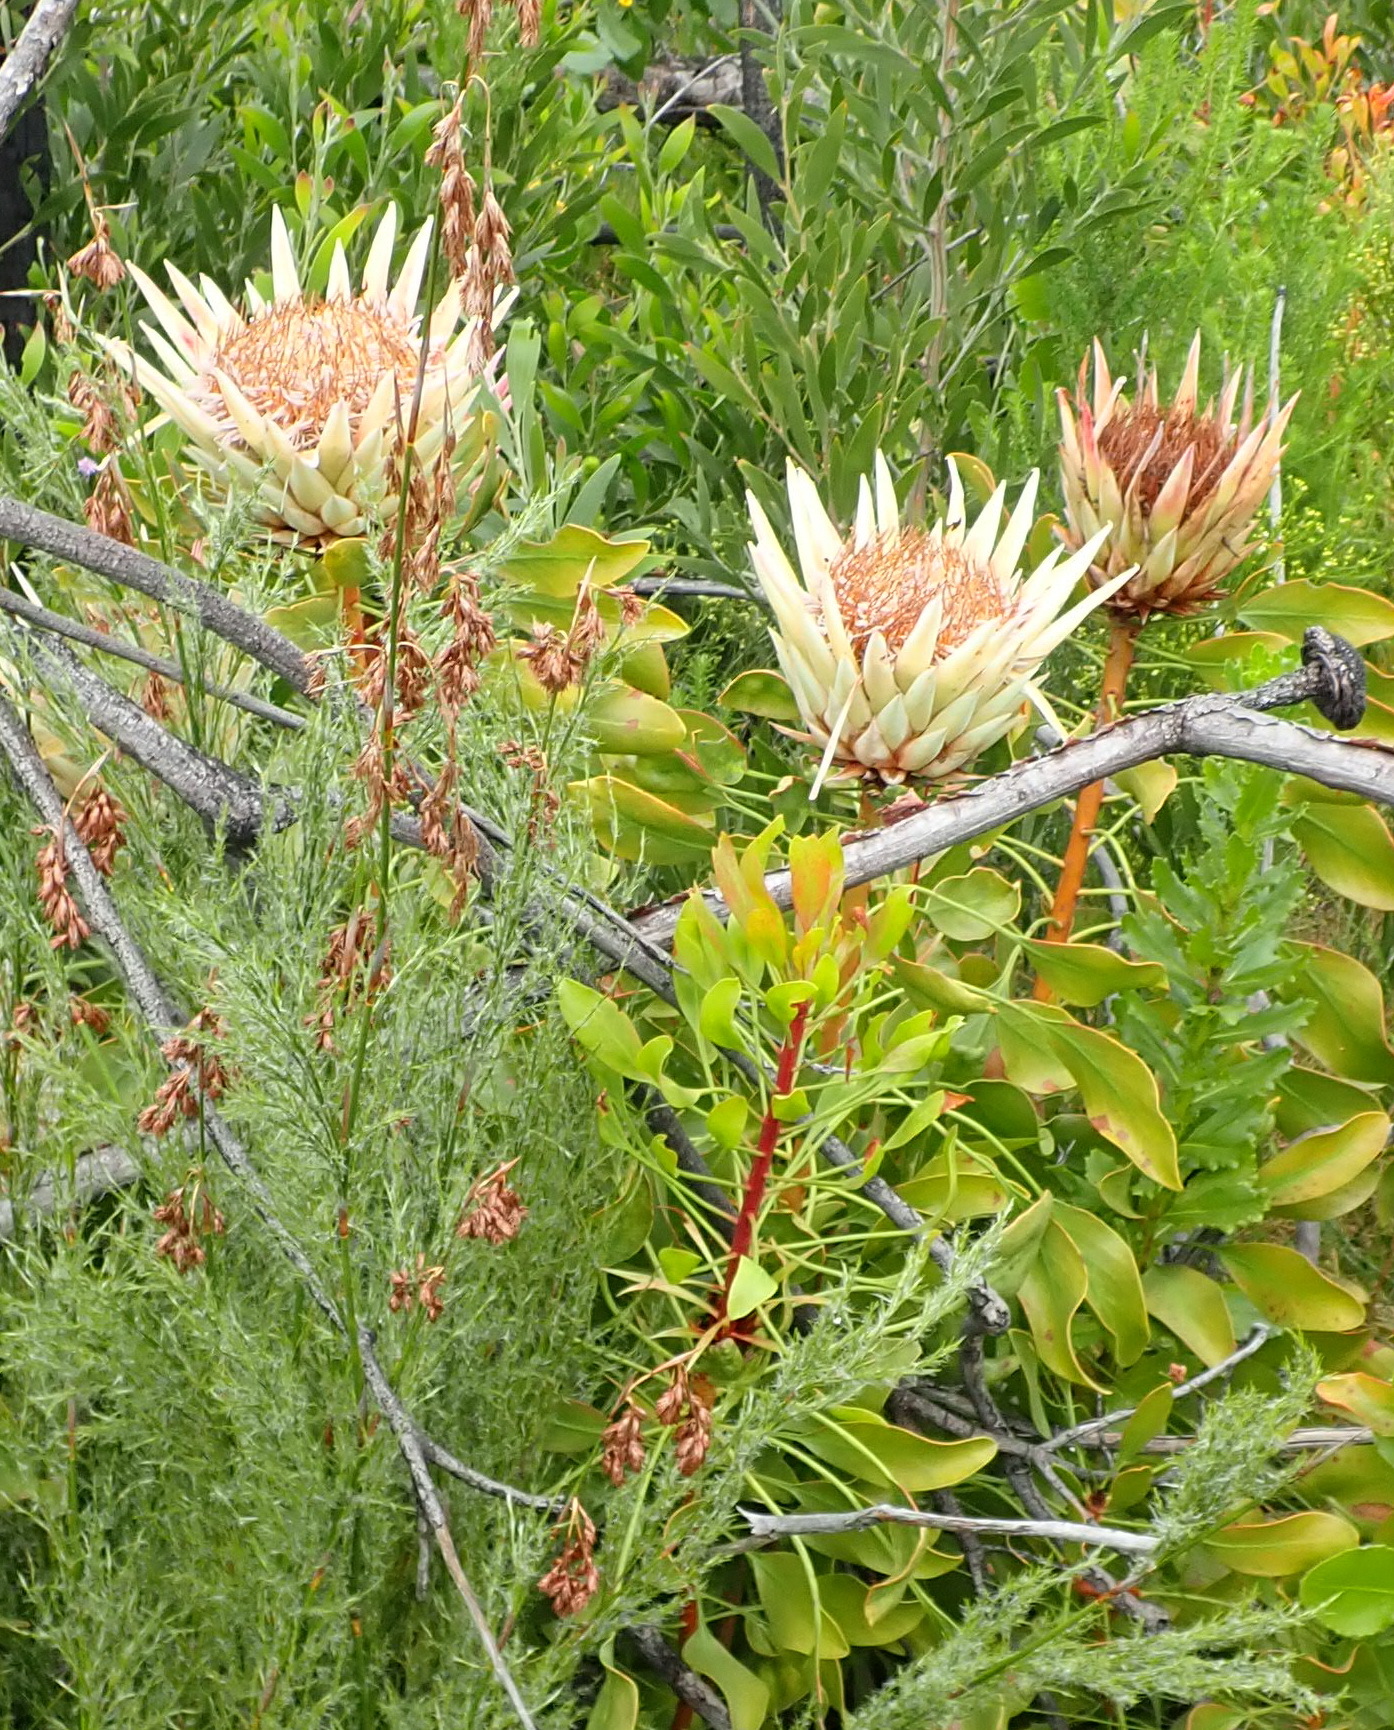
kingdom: Plantae
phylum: Tracheophyta
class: Magnoliopsida
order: Proteales
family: Proteaceae
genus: Protea
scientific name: Protea cynaroides
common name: King protea
